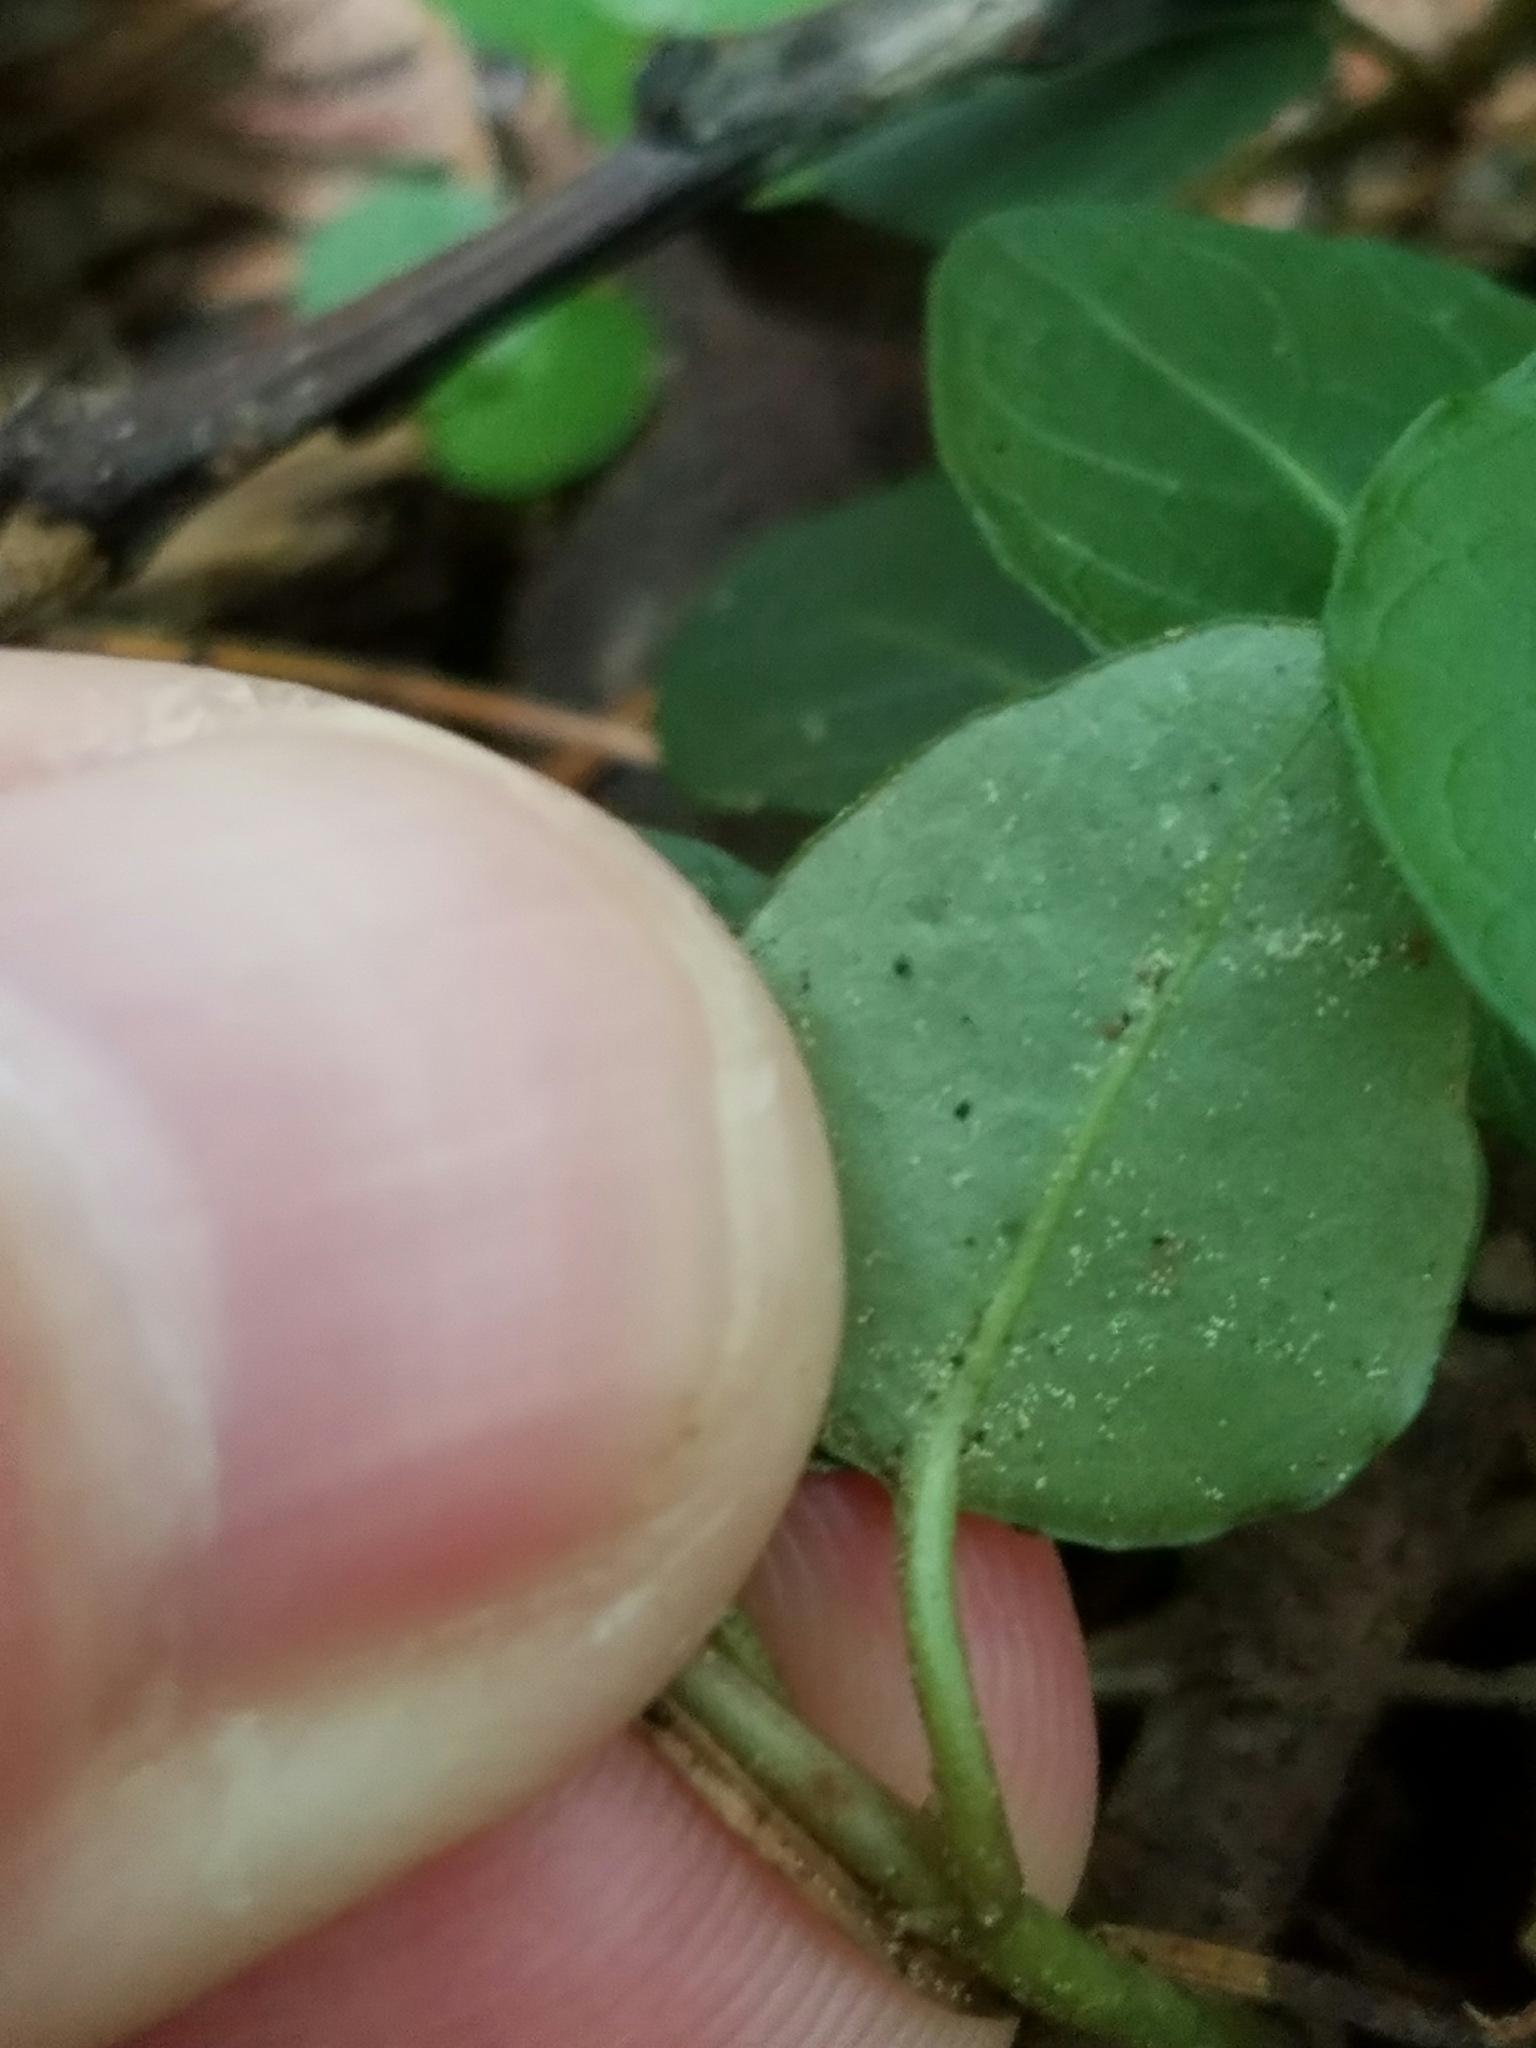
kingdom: Plantae
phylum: Tracheophyta
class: Magnoliopsida
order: Gentianales
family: Rubiaceae
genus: Mitchella
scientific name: Mitchella repens
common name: Partridge-berry
